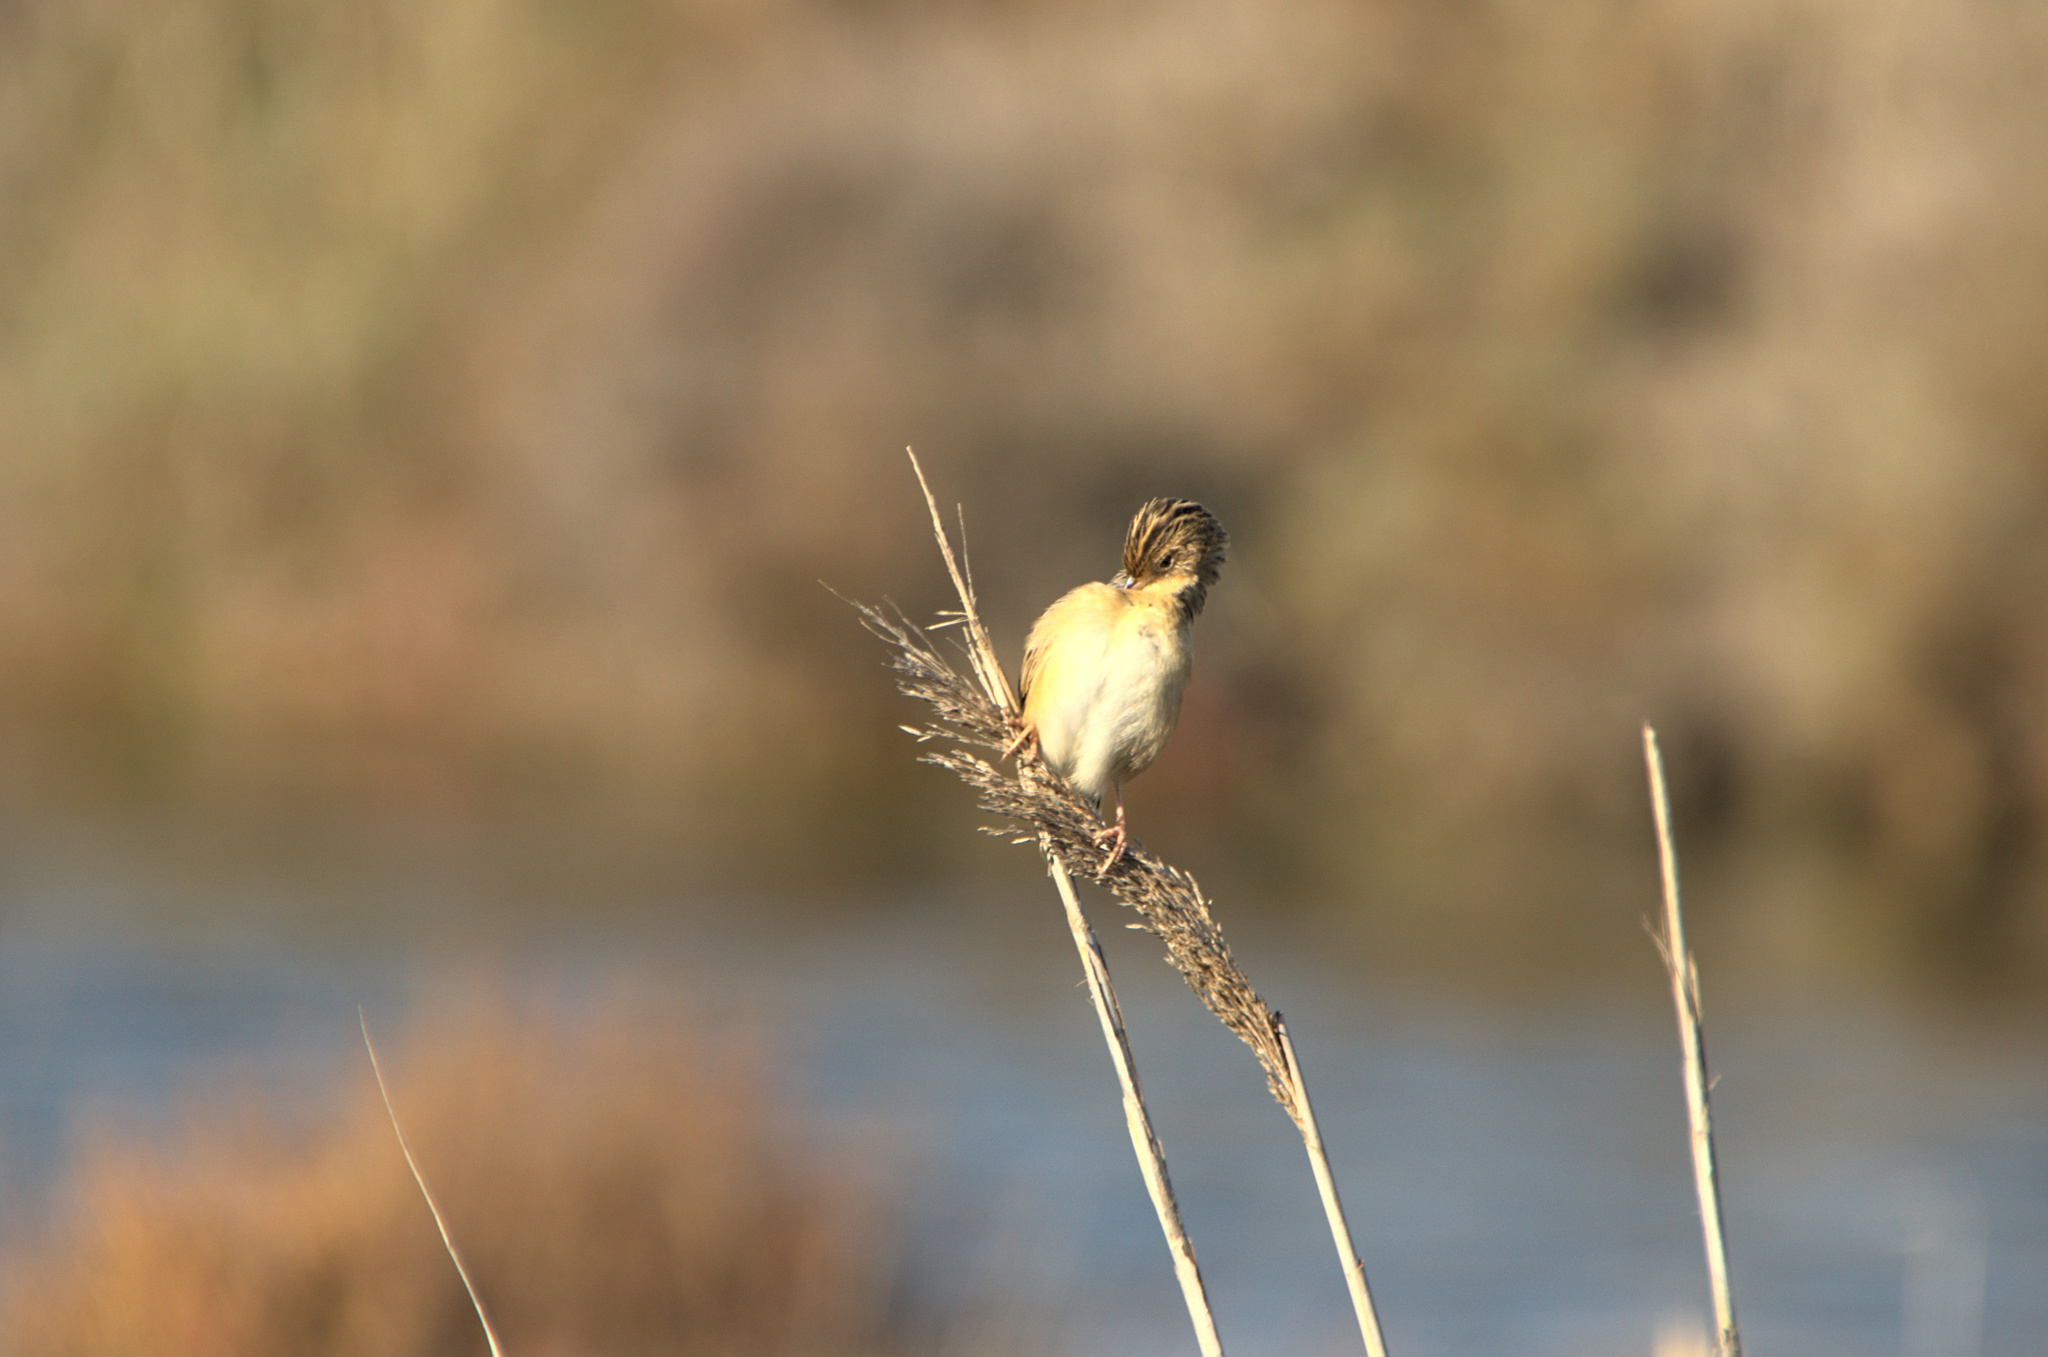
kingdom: Animalia
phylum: Chordata
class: Aves
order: Passeriformes
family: Cisticolidae
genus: Cisticola
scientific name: Cisticola juncidis
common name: Zitting cisticola
